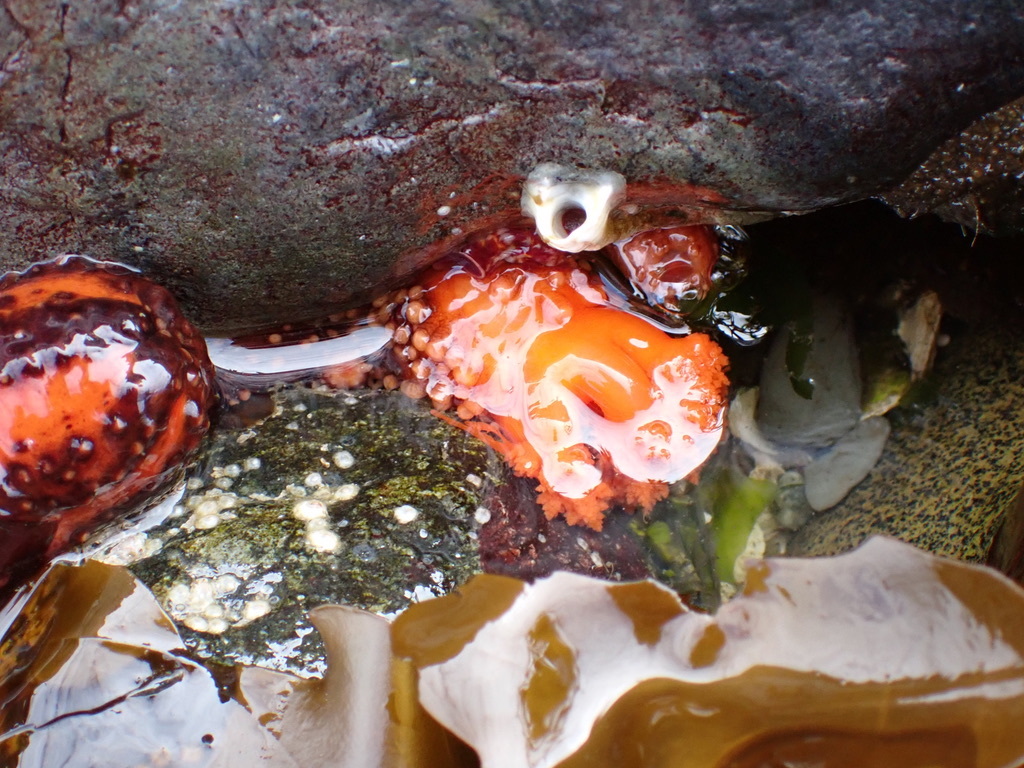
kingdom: Animalia
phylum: Echinodermata
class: Holothuroidea
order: Dendrochirotida
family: Cucumariidae
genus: Cucumaria
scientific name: Cucumaria miniata
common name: Orange sea cucumber
